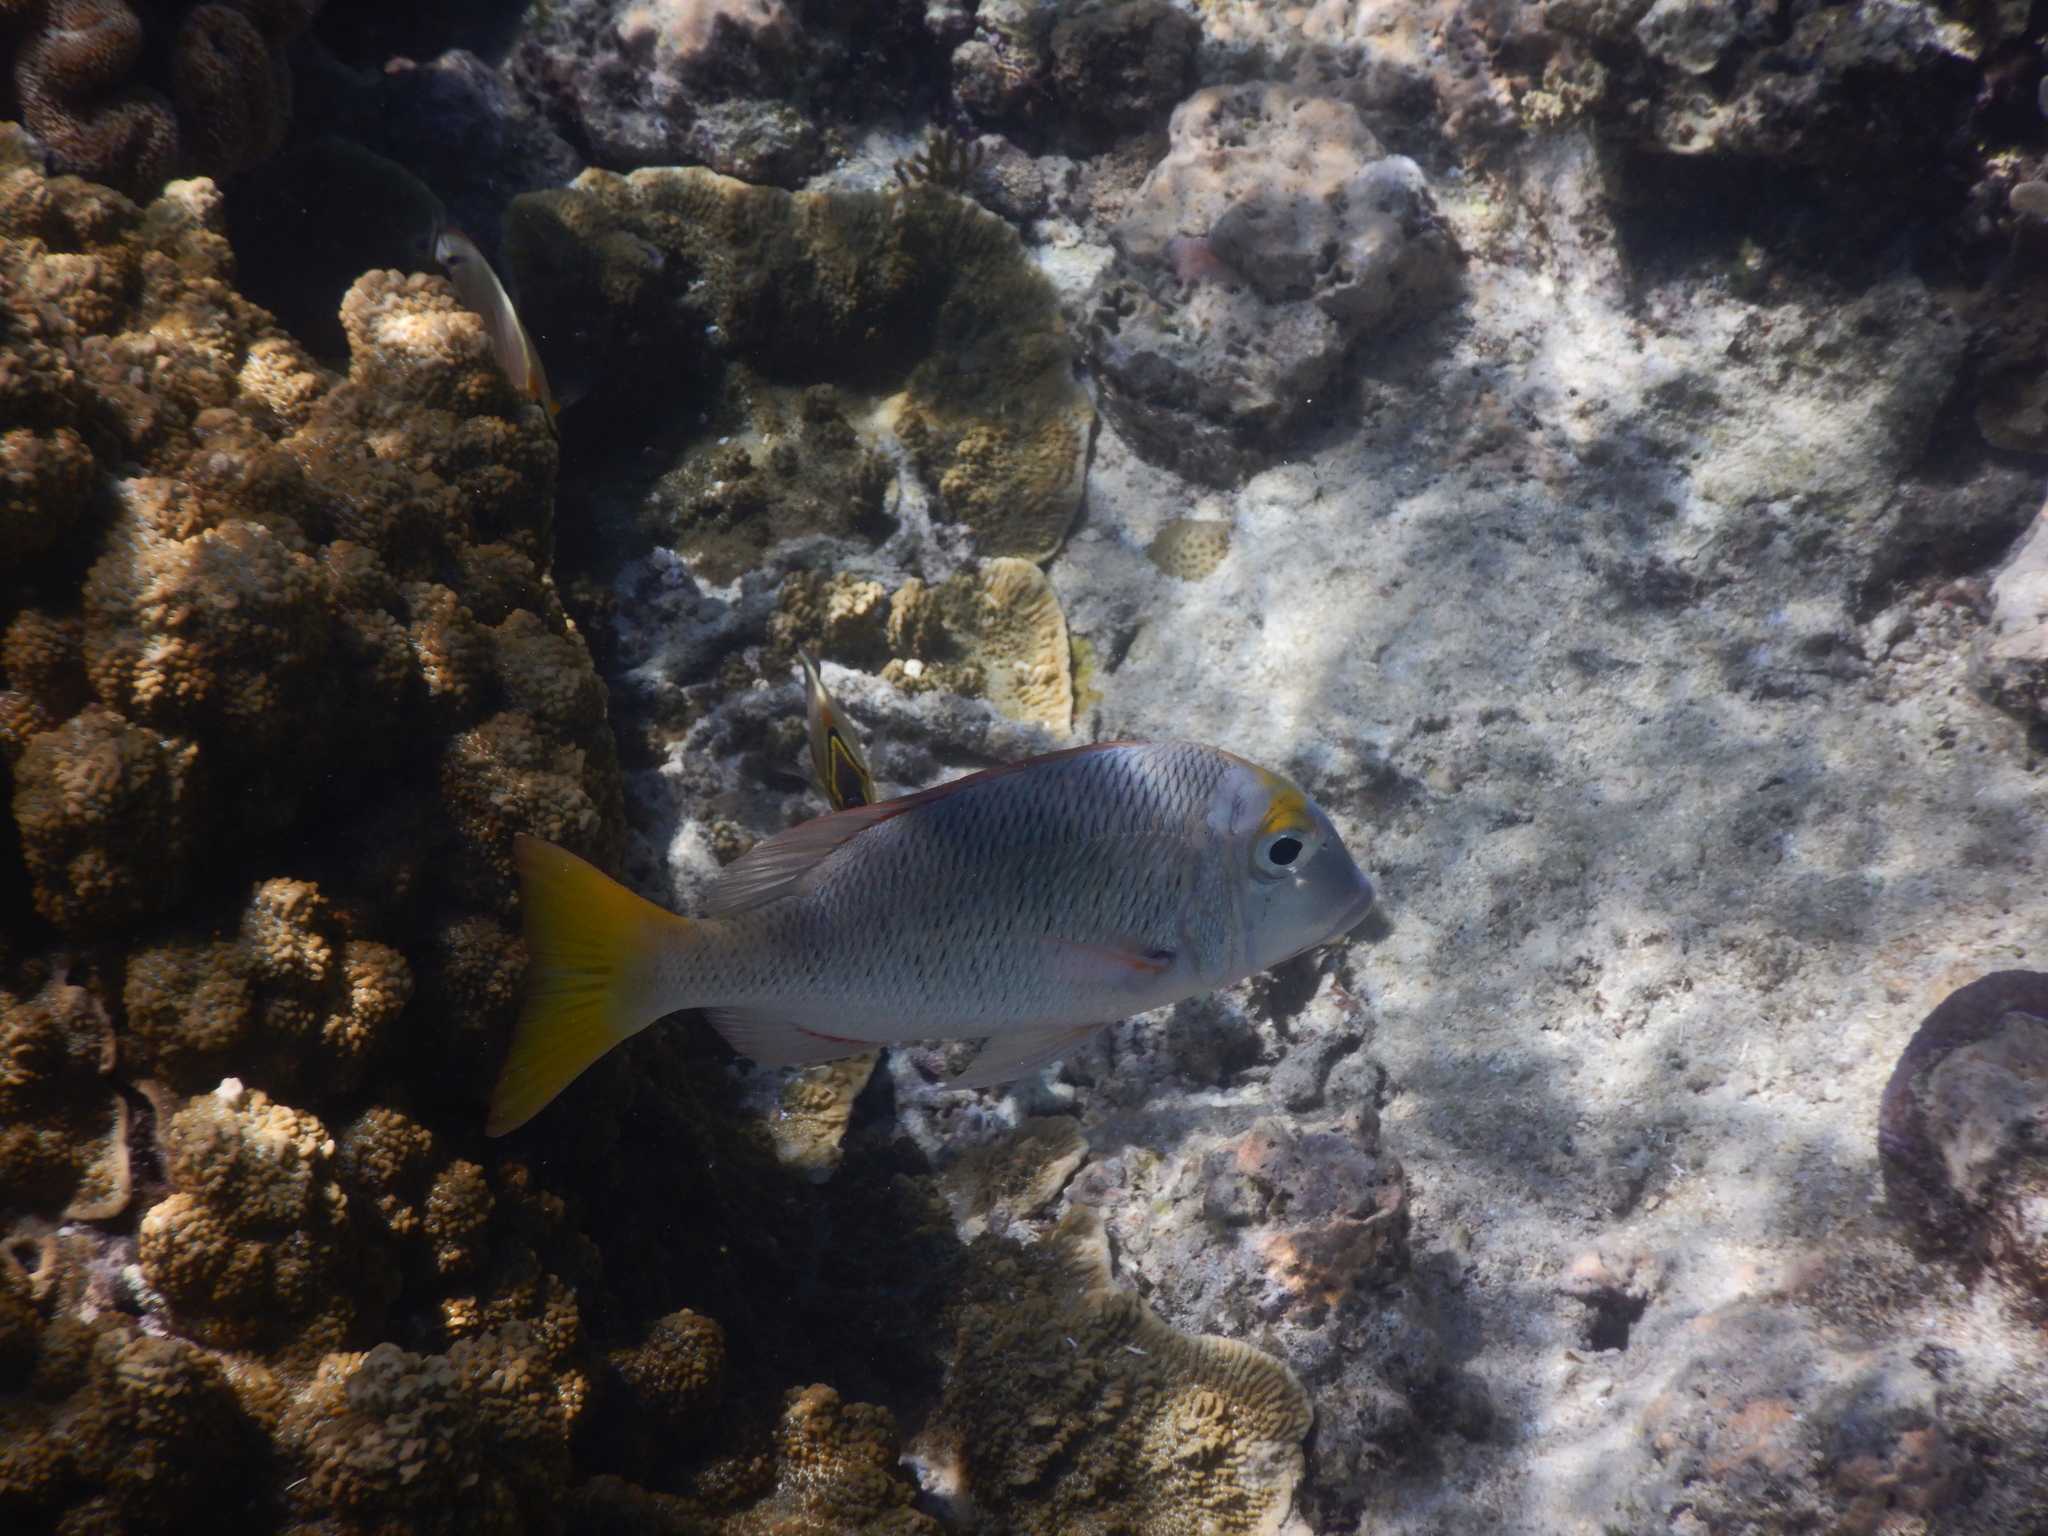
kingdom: Animalia
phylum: Chordata
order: Perciformes
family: Lethrinidae
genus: Lethrinus
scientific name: Lethrinus atkinsoni
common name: Pacific yellowtail emperor
